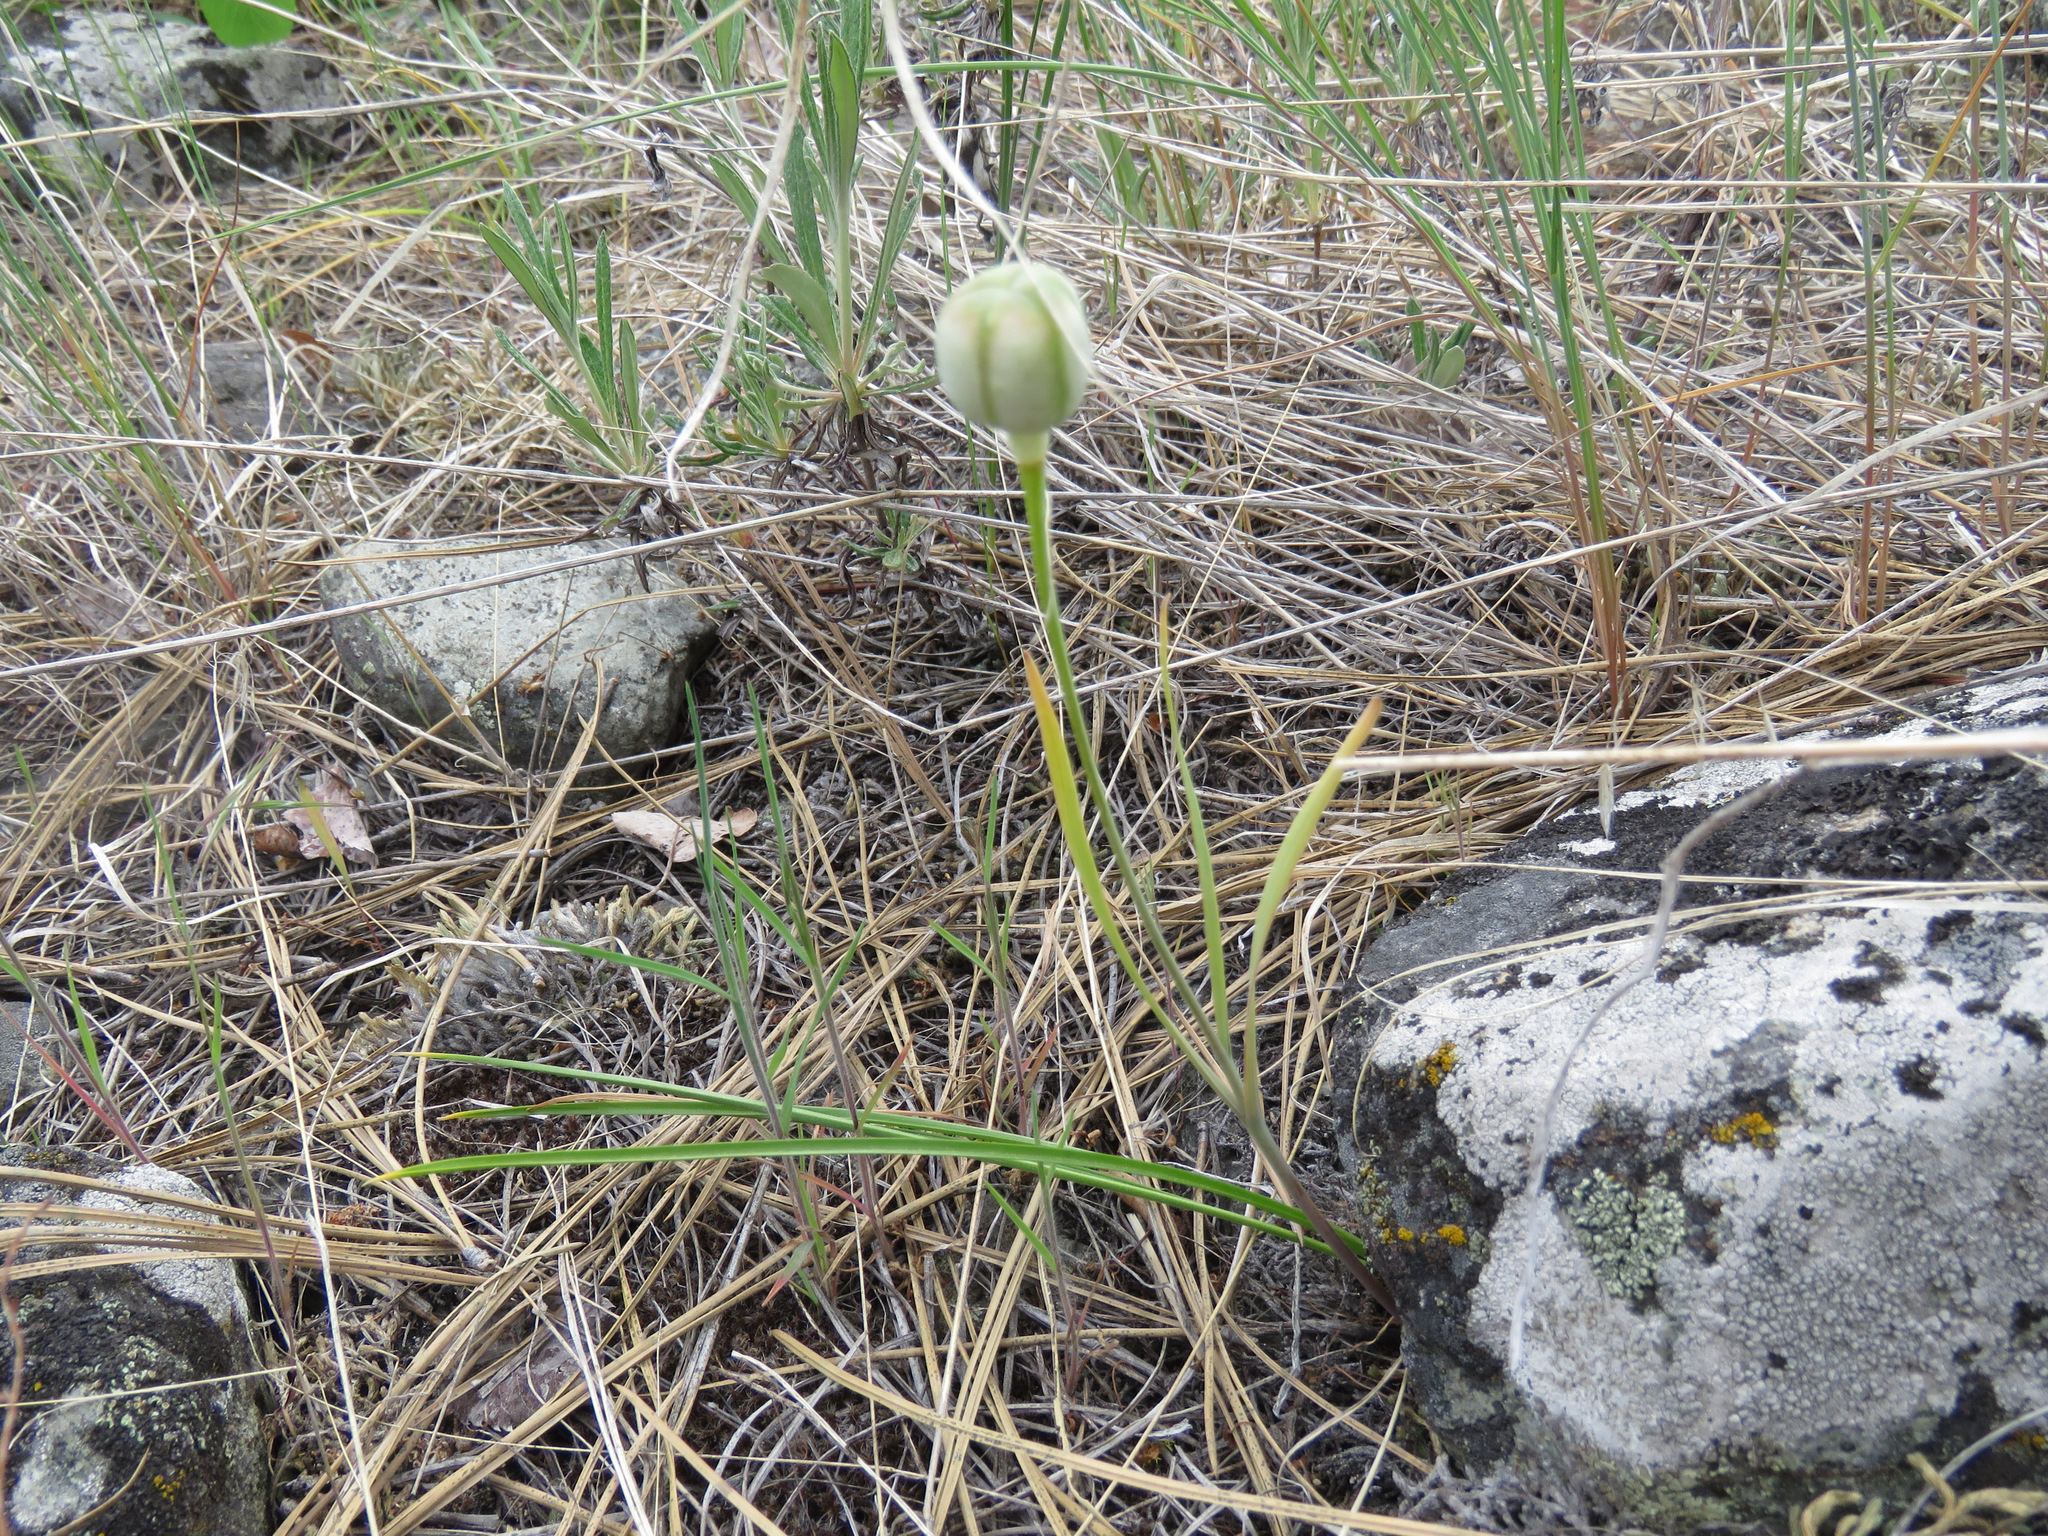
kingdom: Plantae
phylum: Tracheophyta
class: Liliopsida
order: Liliales
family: Liliaceae
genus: Fritillaria
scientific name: Fritillaria pudica
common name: Yellow fritillary
